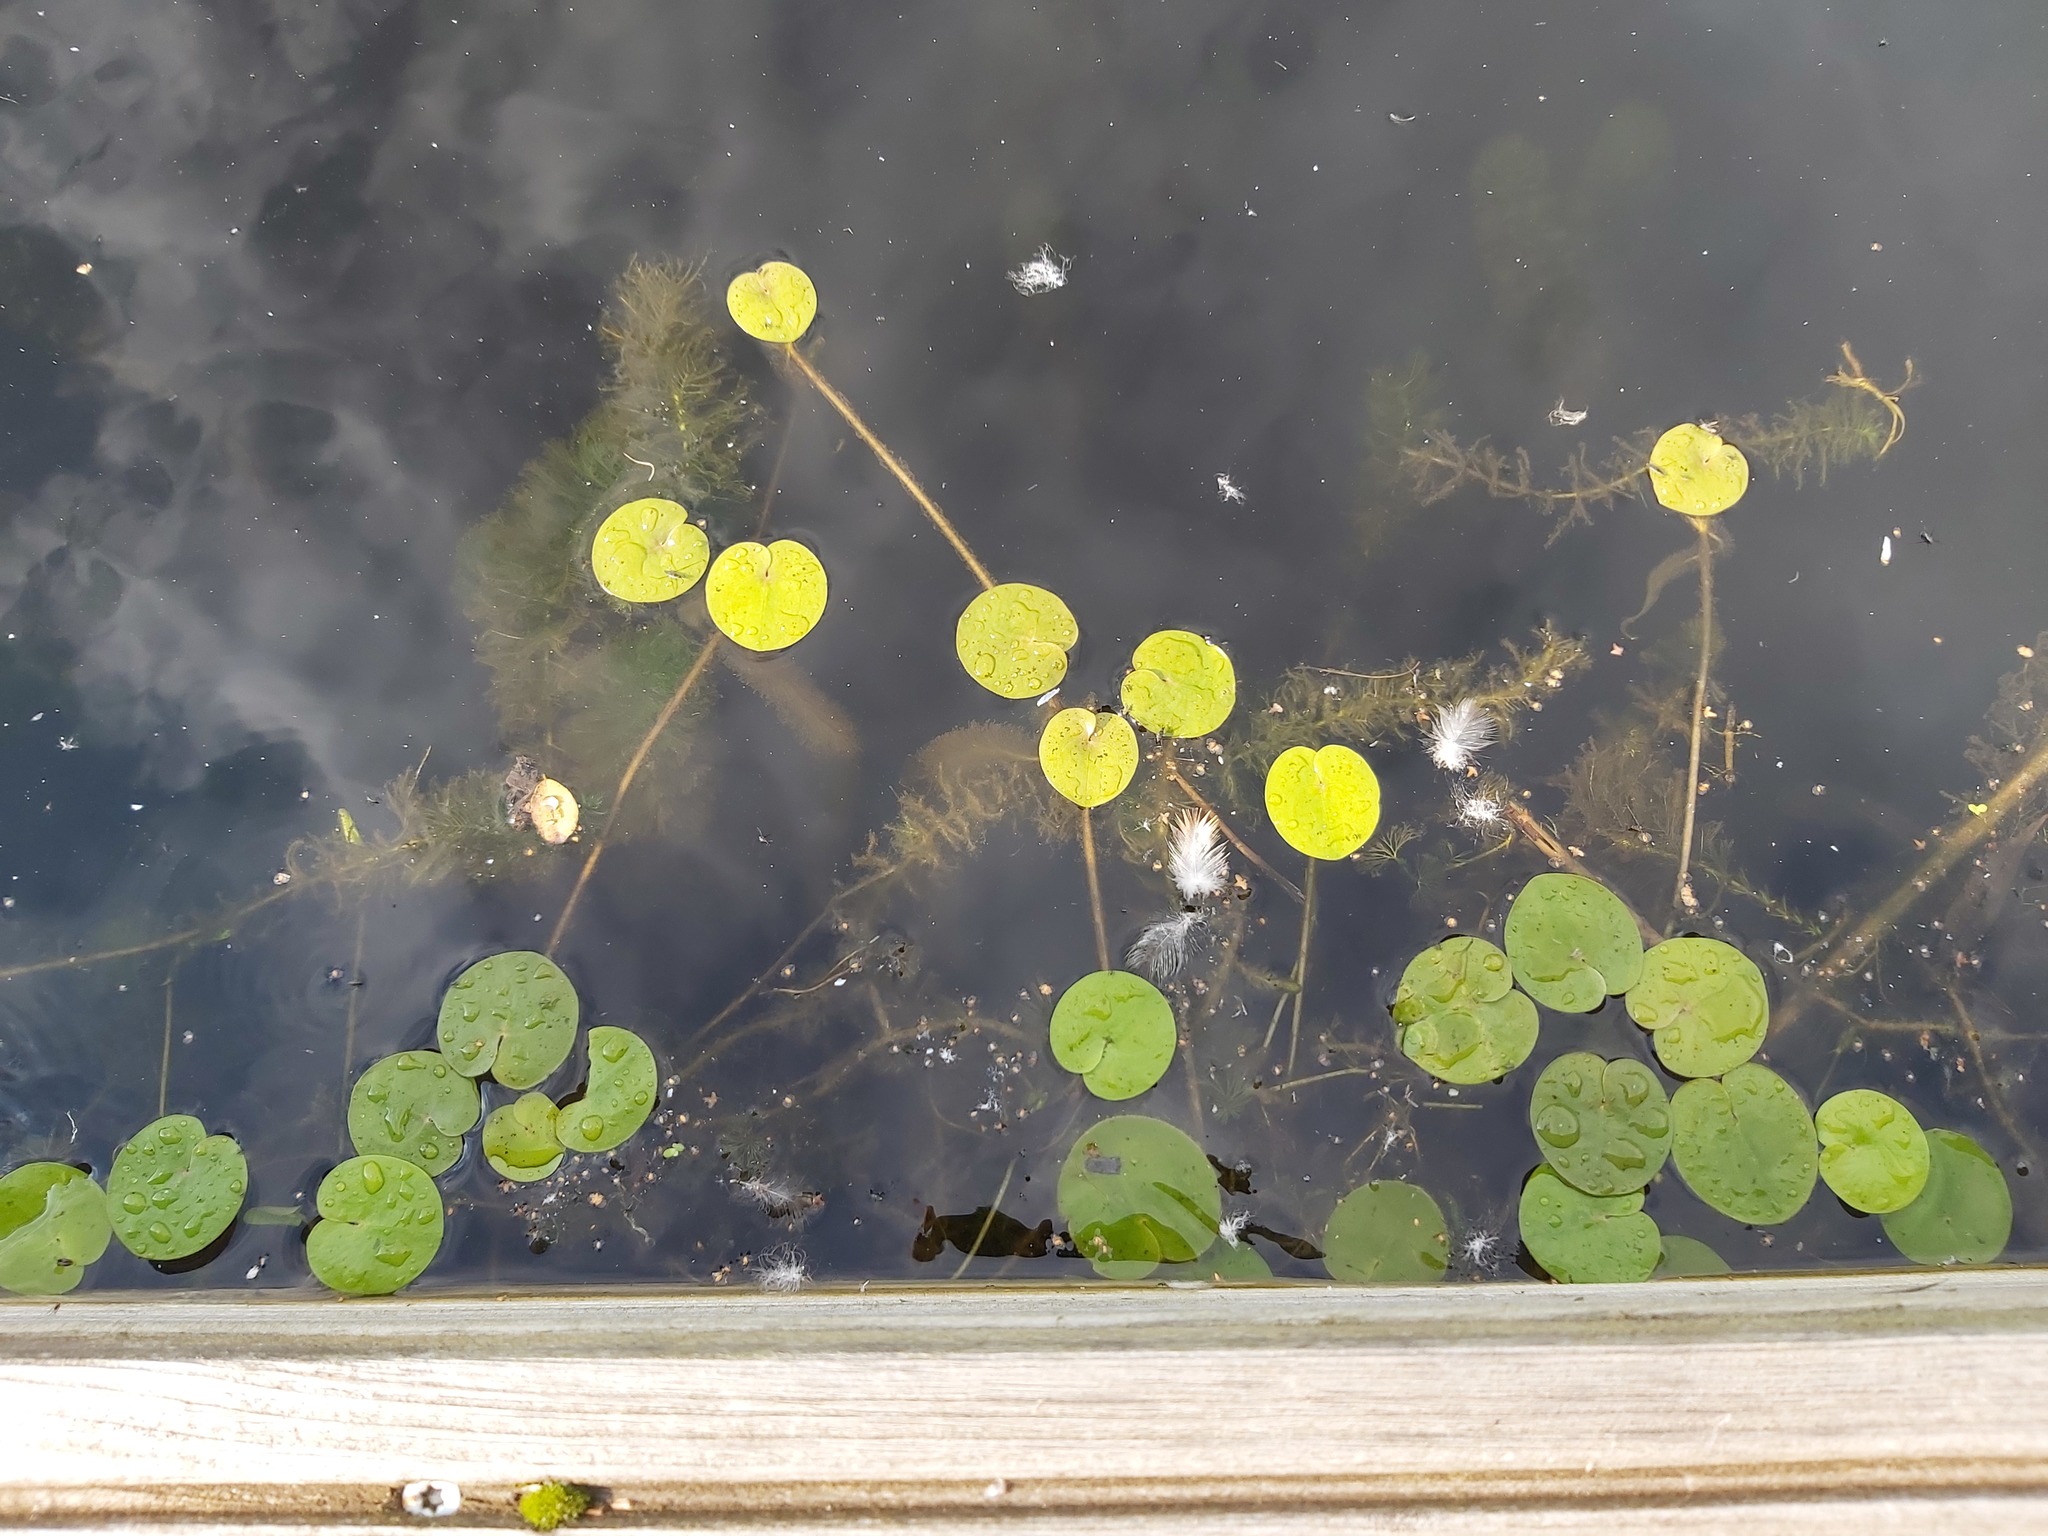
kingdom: Plantae
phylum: Tracheophyta
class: Liliopsida
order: Alismatales
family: Hydrocharitaceae
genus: Hydrocharis
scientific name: Hydrocharis morsus-ranae
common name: Frogbit
